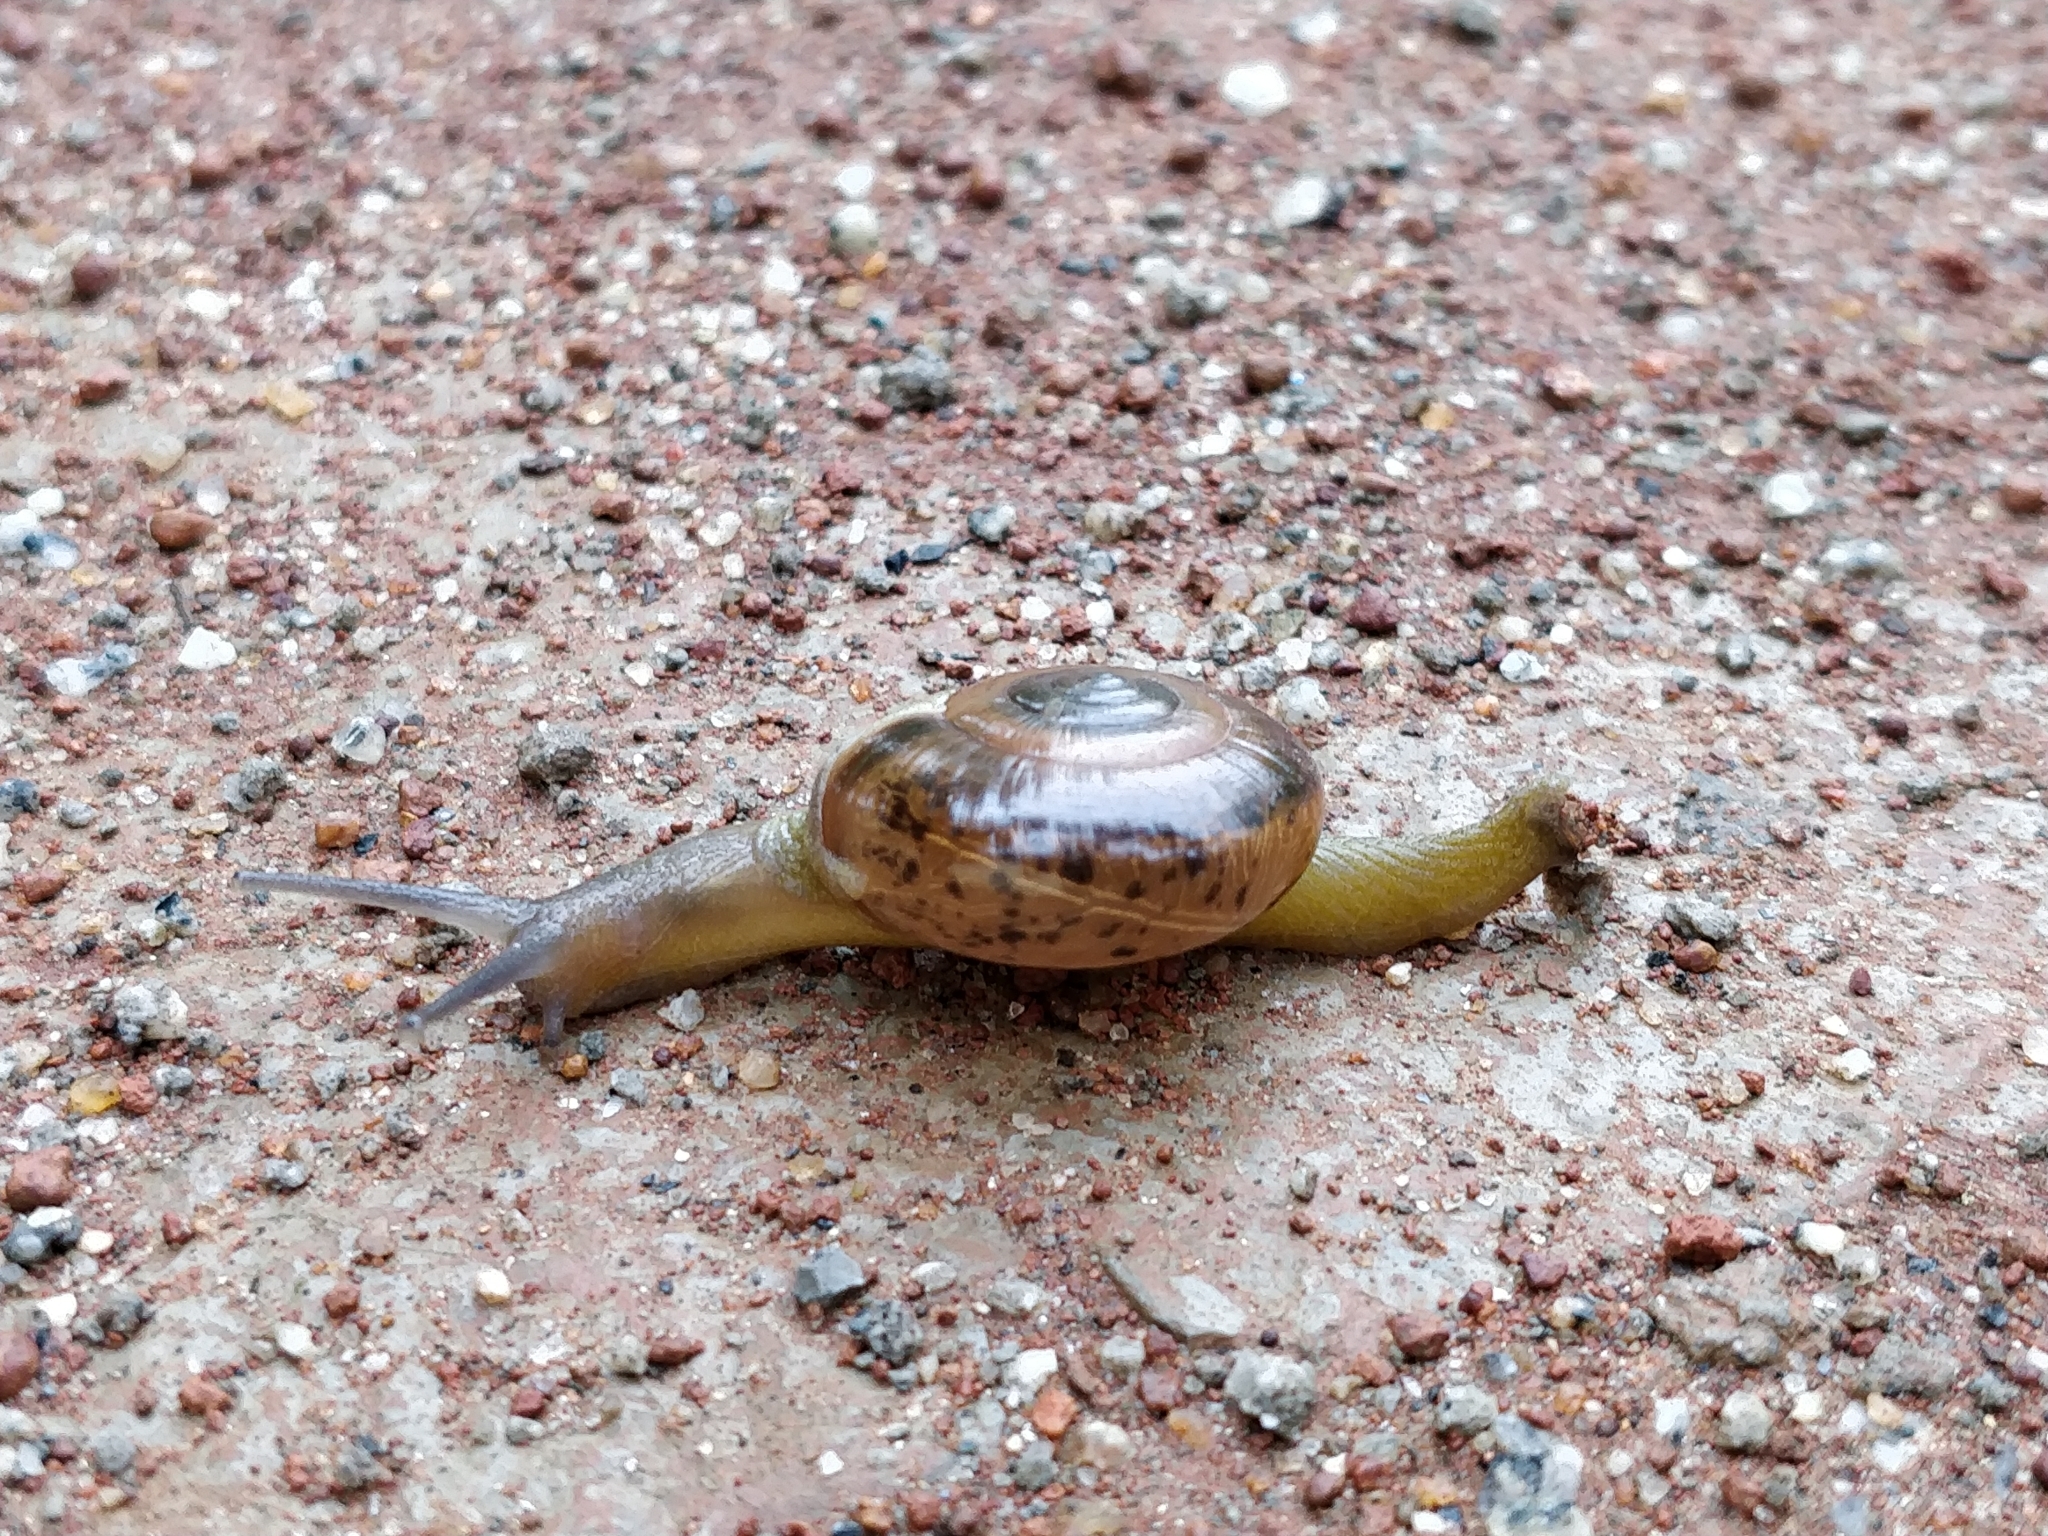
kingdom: Animalia
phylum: Mollusca
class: Gastropoda
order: Stylommatophora
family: Ariophantidae
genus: Macrochlamys
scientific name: Macrochlamys indica
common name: Horntail snail
